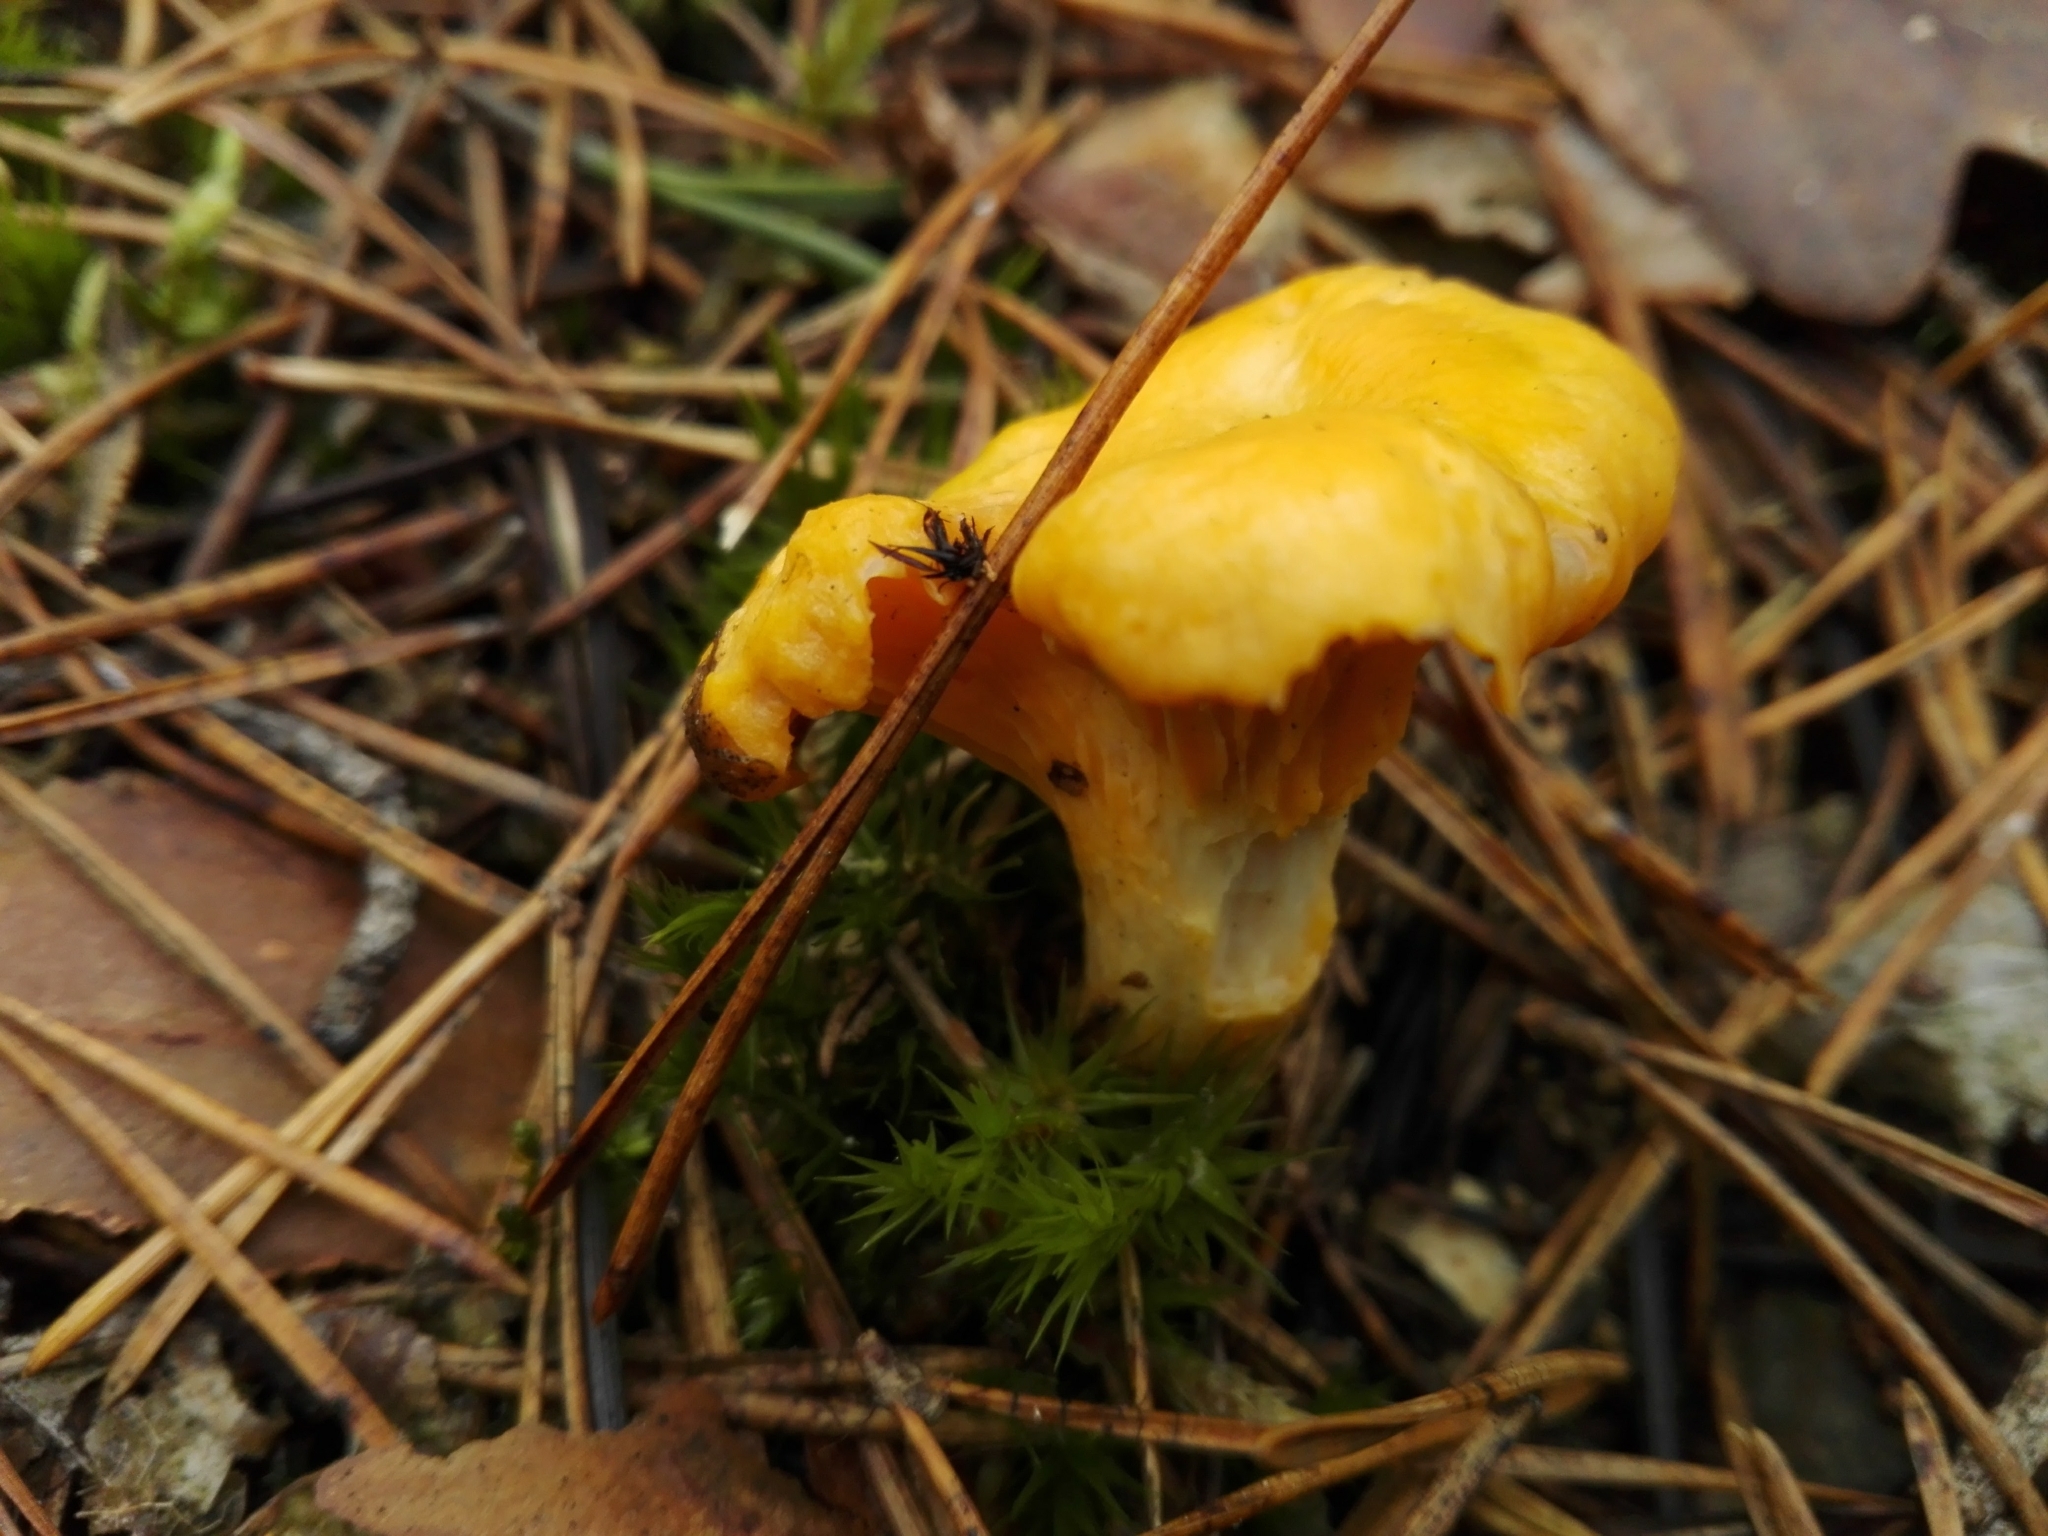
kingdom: Fungi
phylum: Basidiomycota
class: Agaricomycetes
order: Cantharellales
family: Hydnaceae
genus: Cantharellus
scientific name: Cantharellus cibarius
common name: Chanterelle
